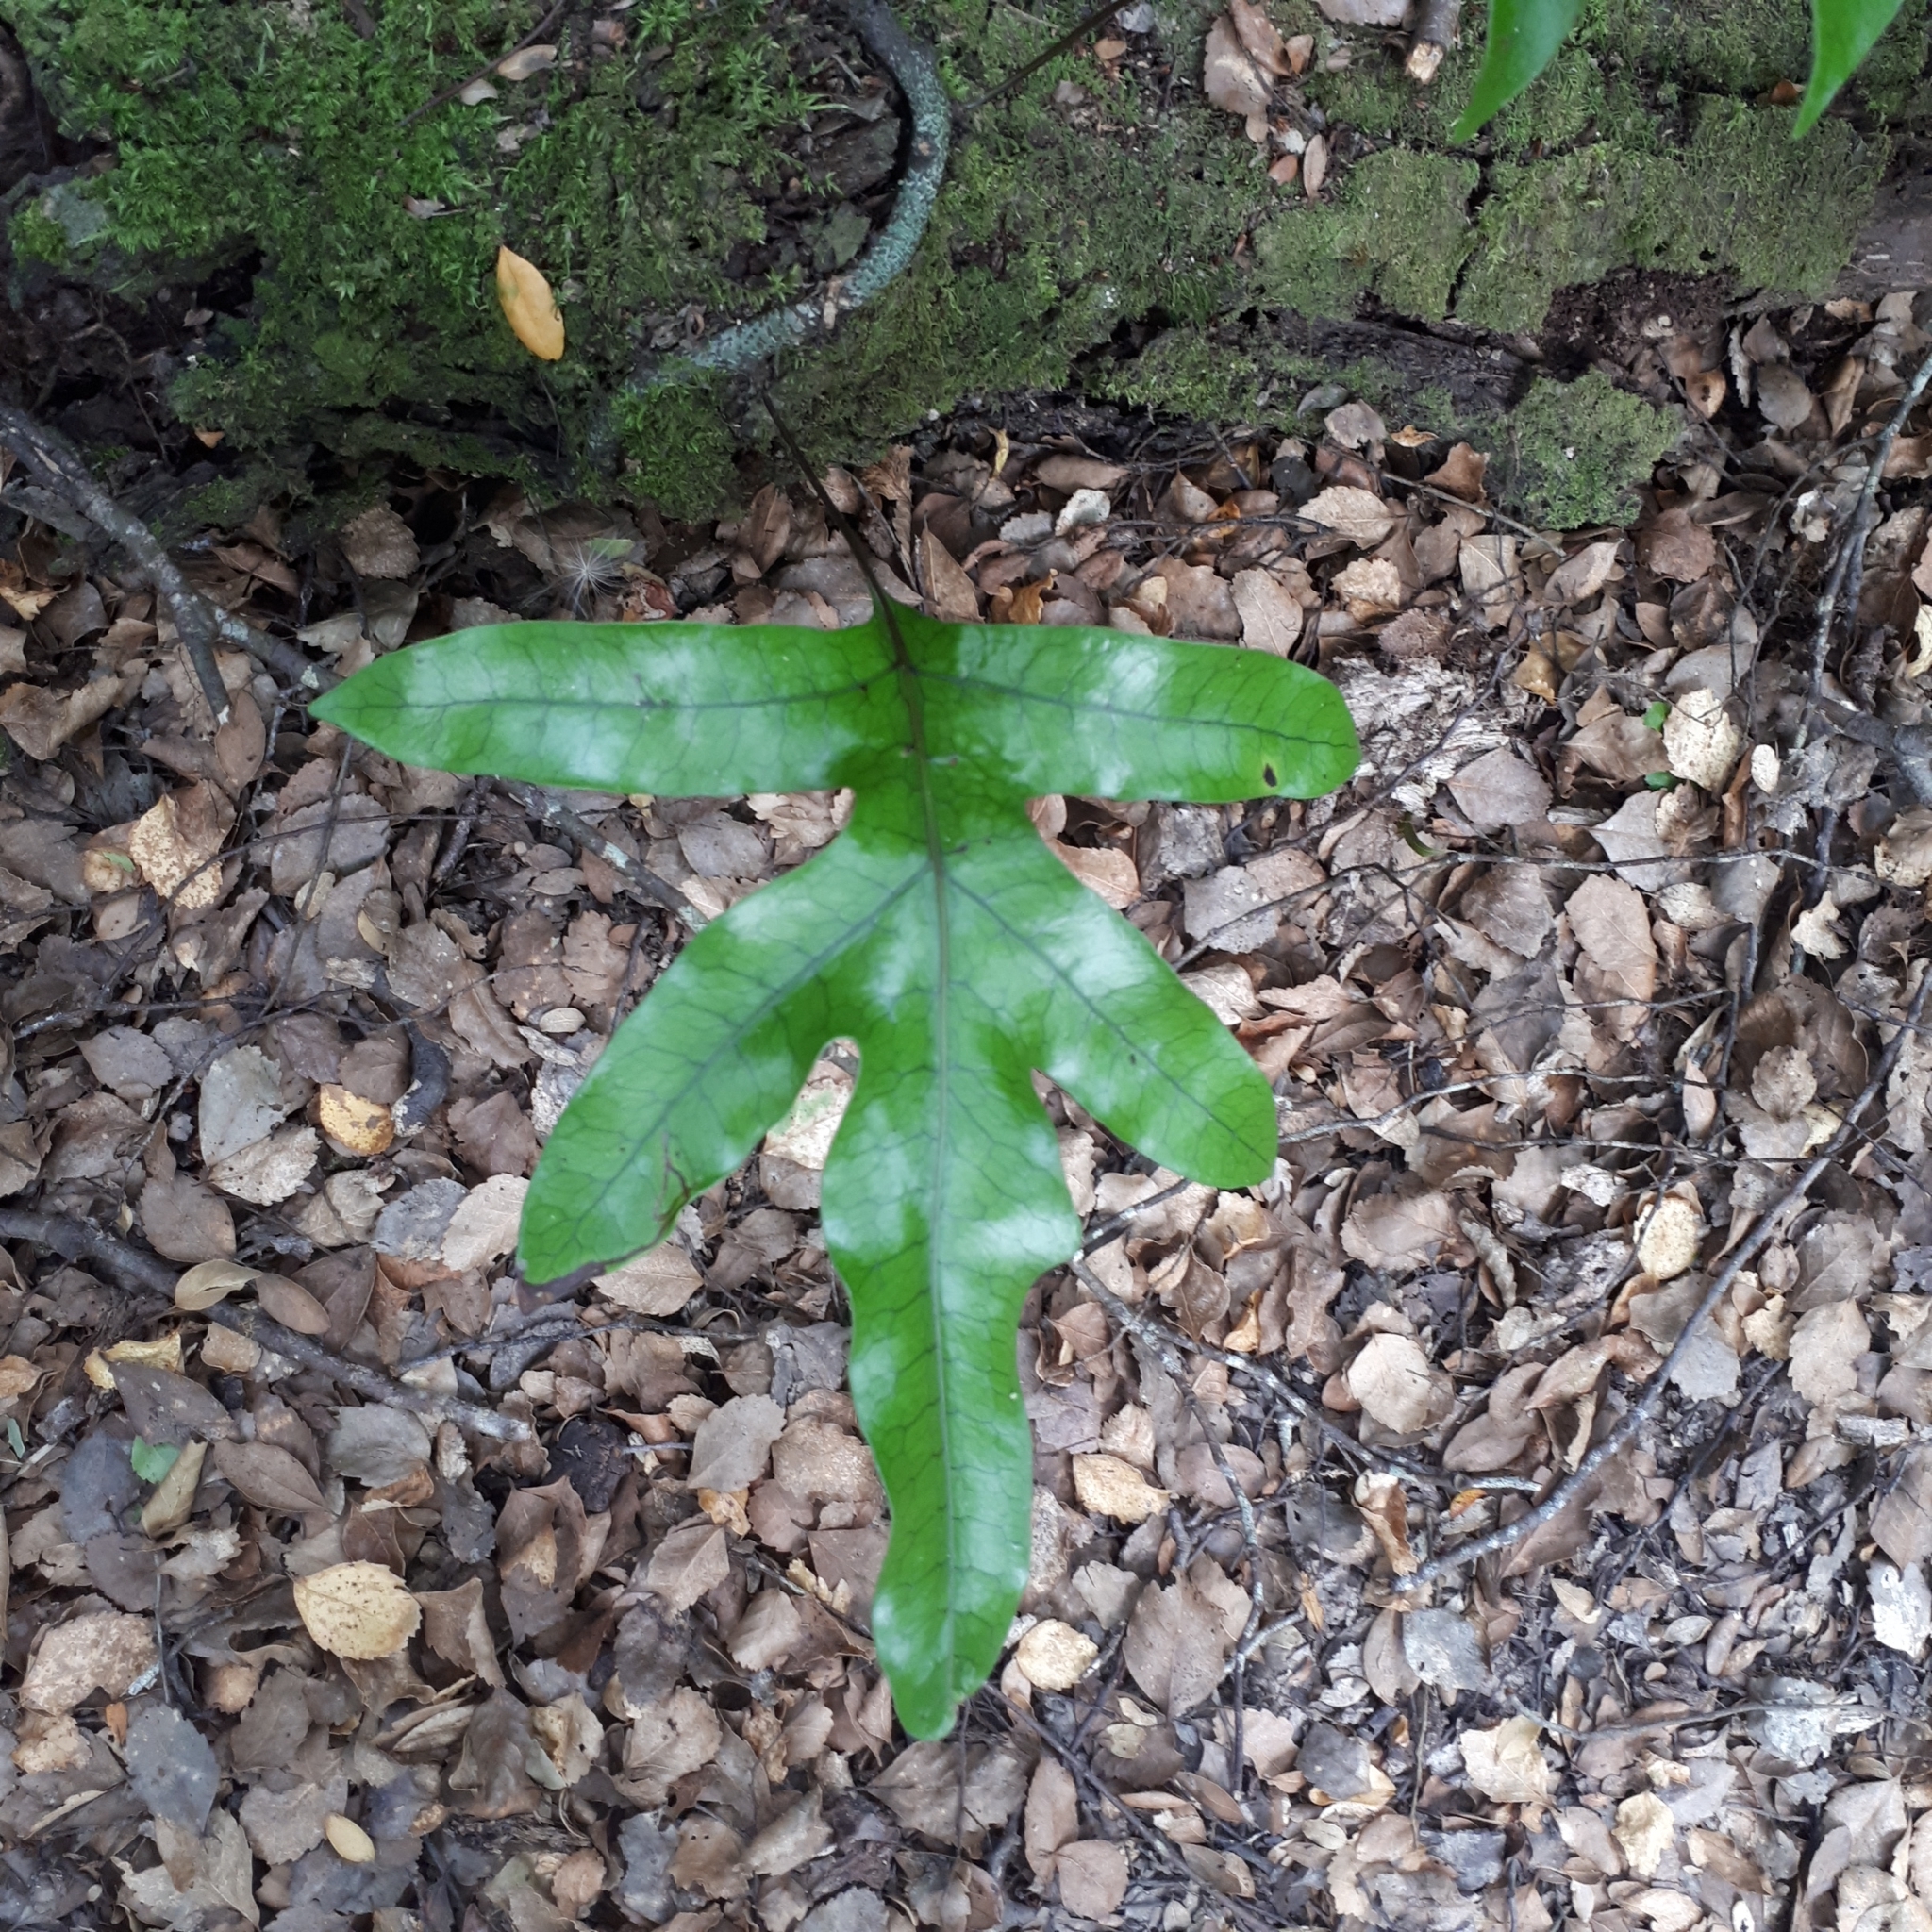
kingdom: Plantae
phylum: Tracheophyta
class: Polypodiopsida
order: Polypodiales
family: Polypodiaceae
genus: Lecanopteris
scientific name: Lecanopteris pustulata
